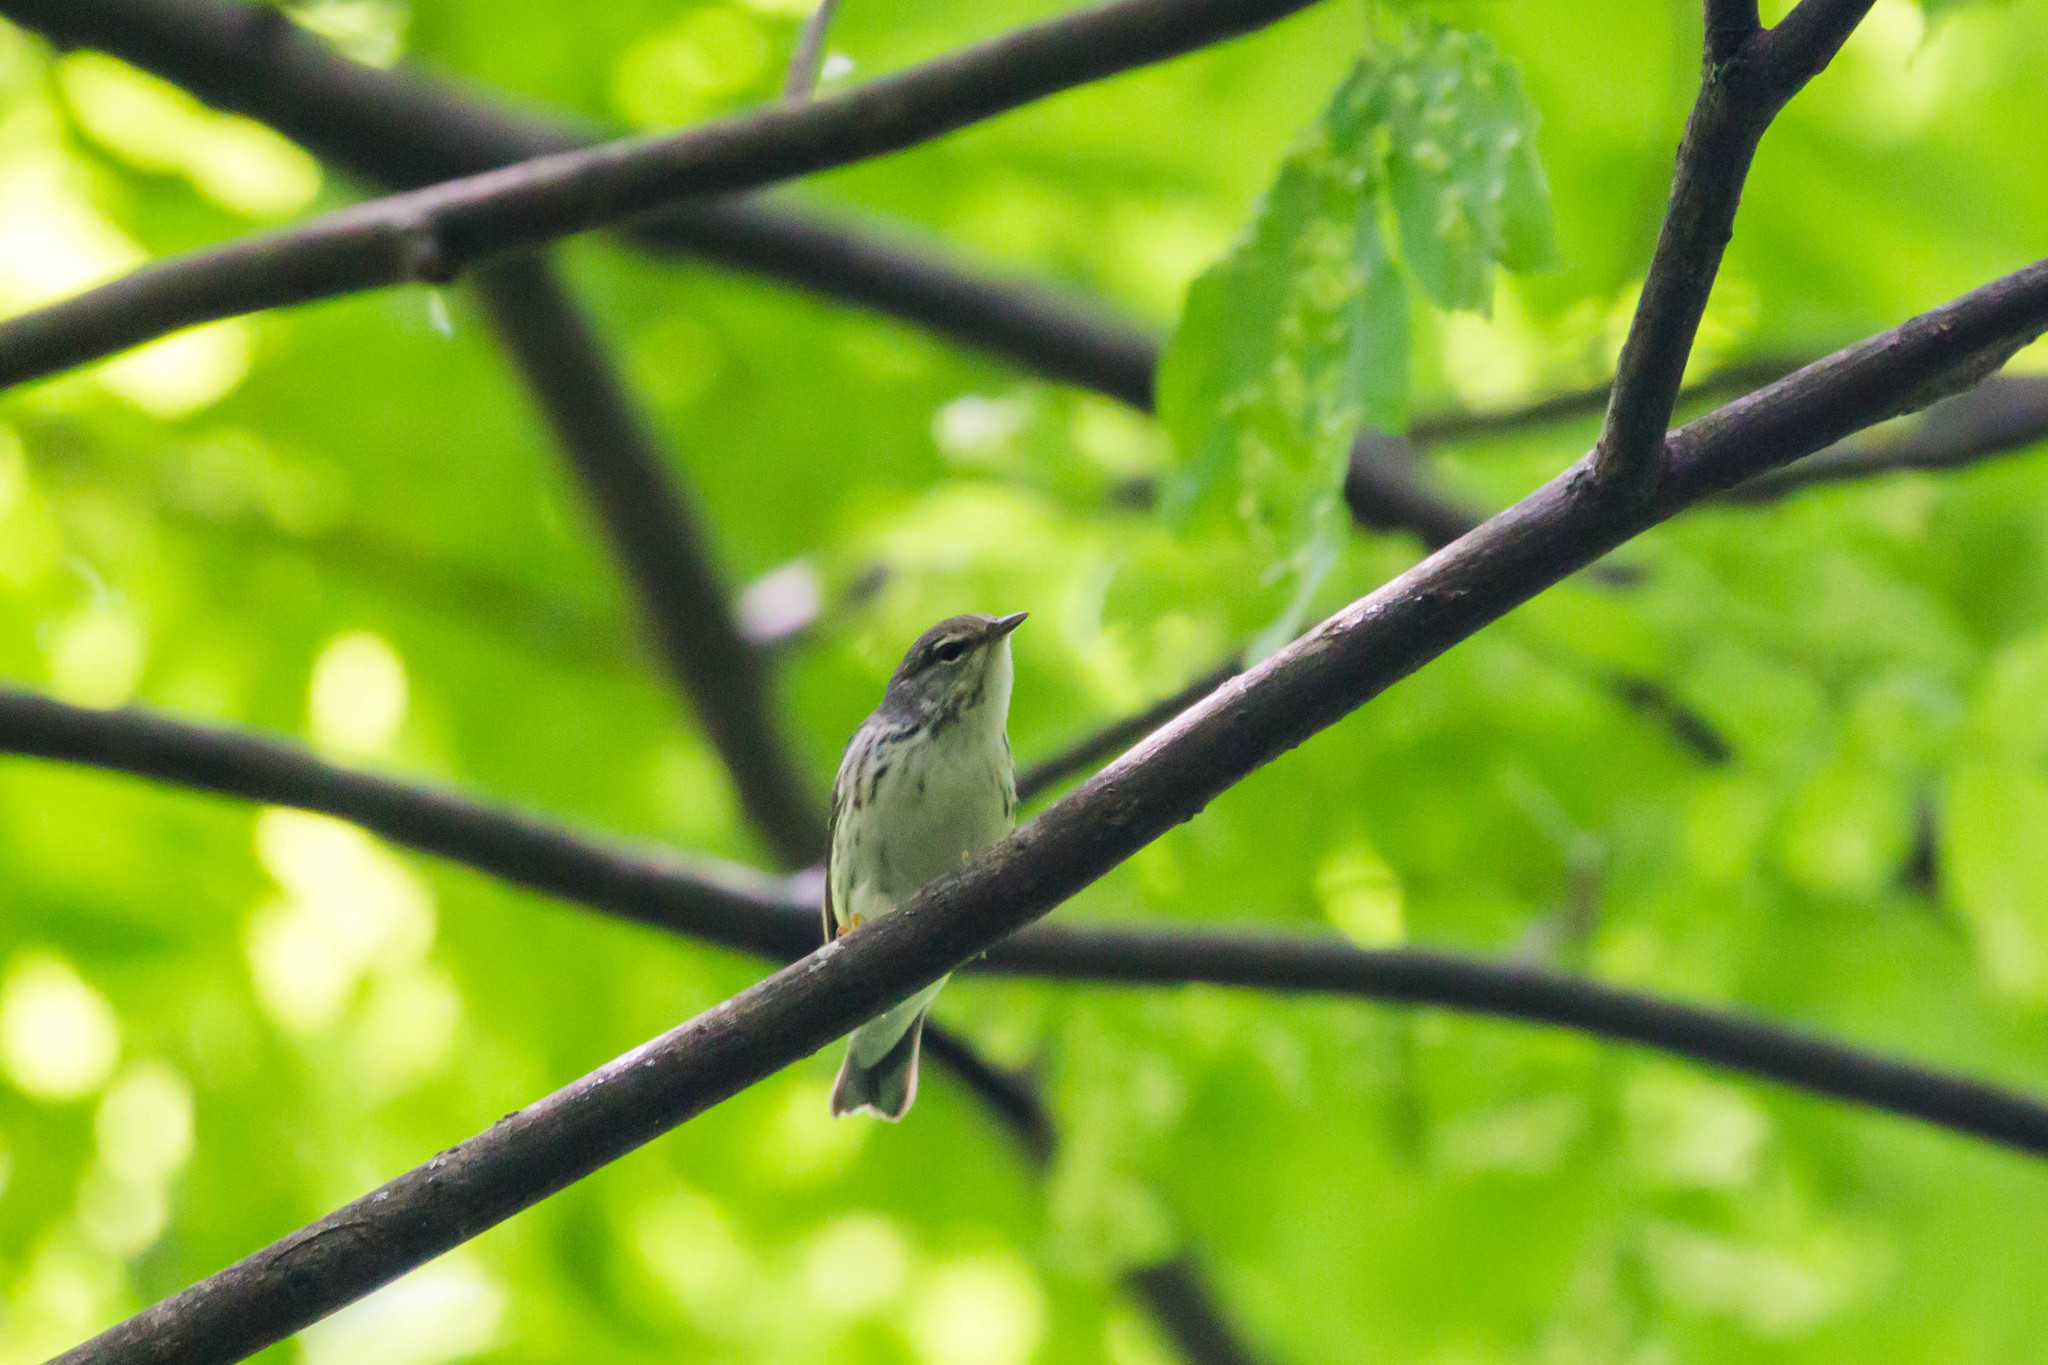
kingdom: Animalia
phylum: Chordata
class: Aves
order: Passeriformes
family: Parulidae
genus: Setophaga
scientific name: Setophaga striata
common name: Blackpoll warbler
